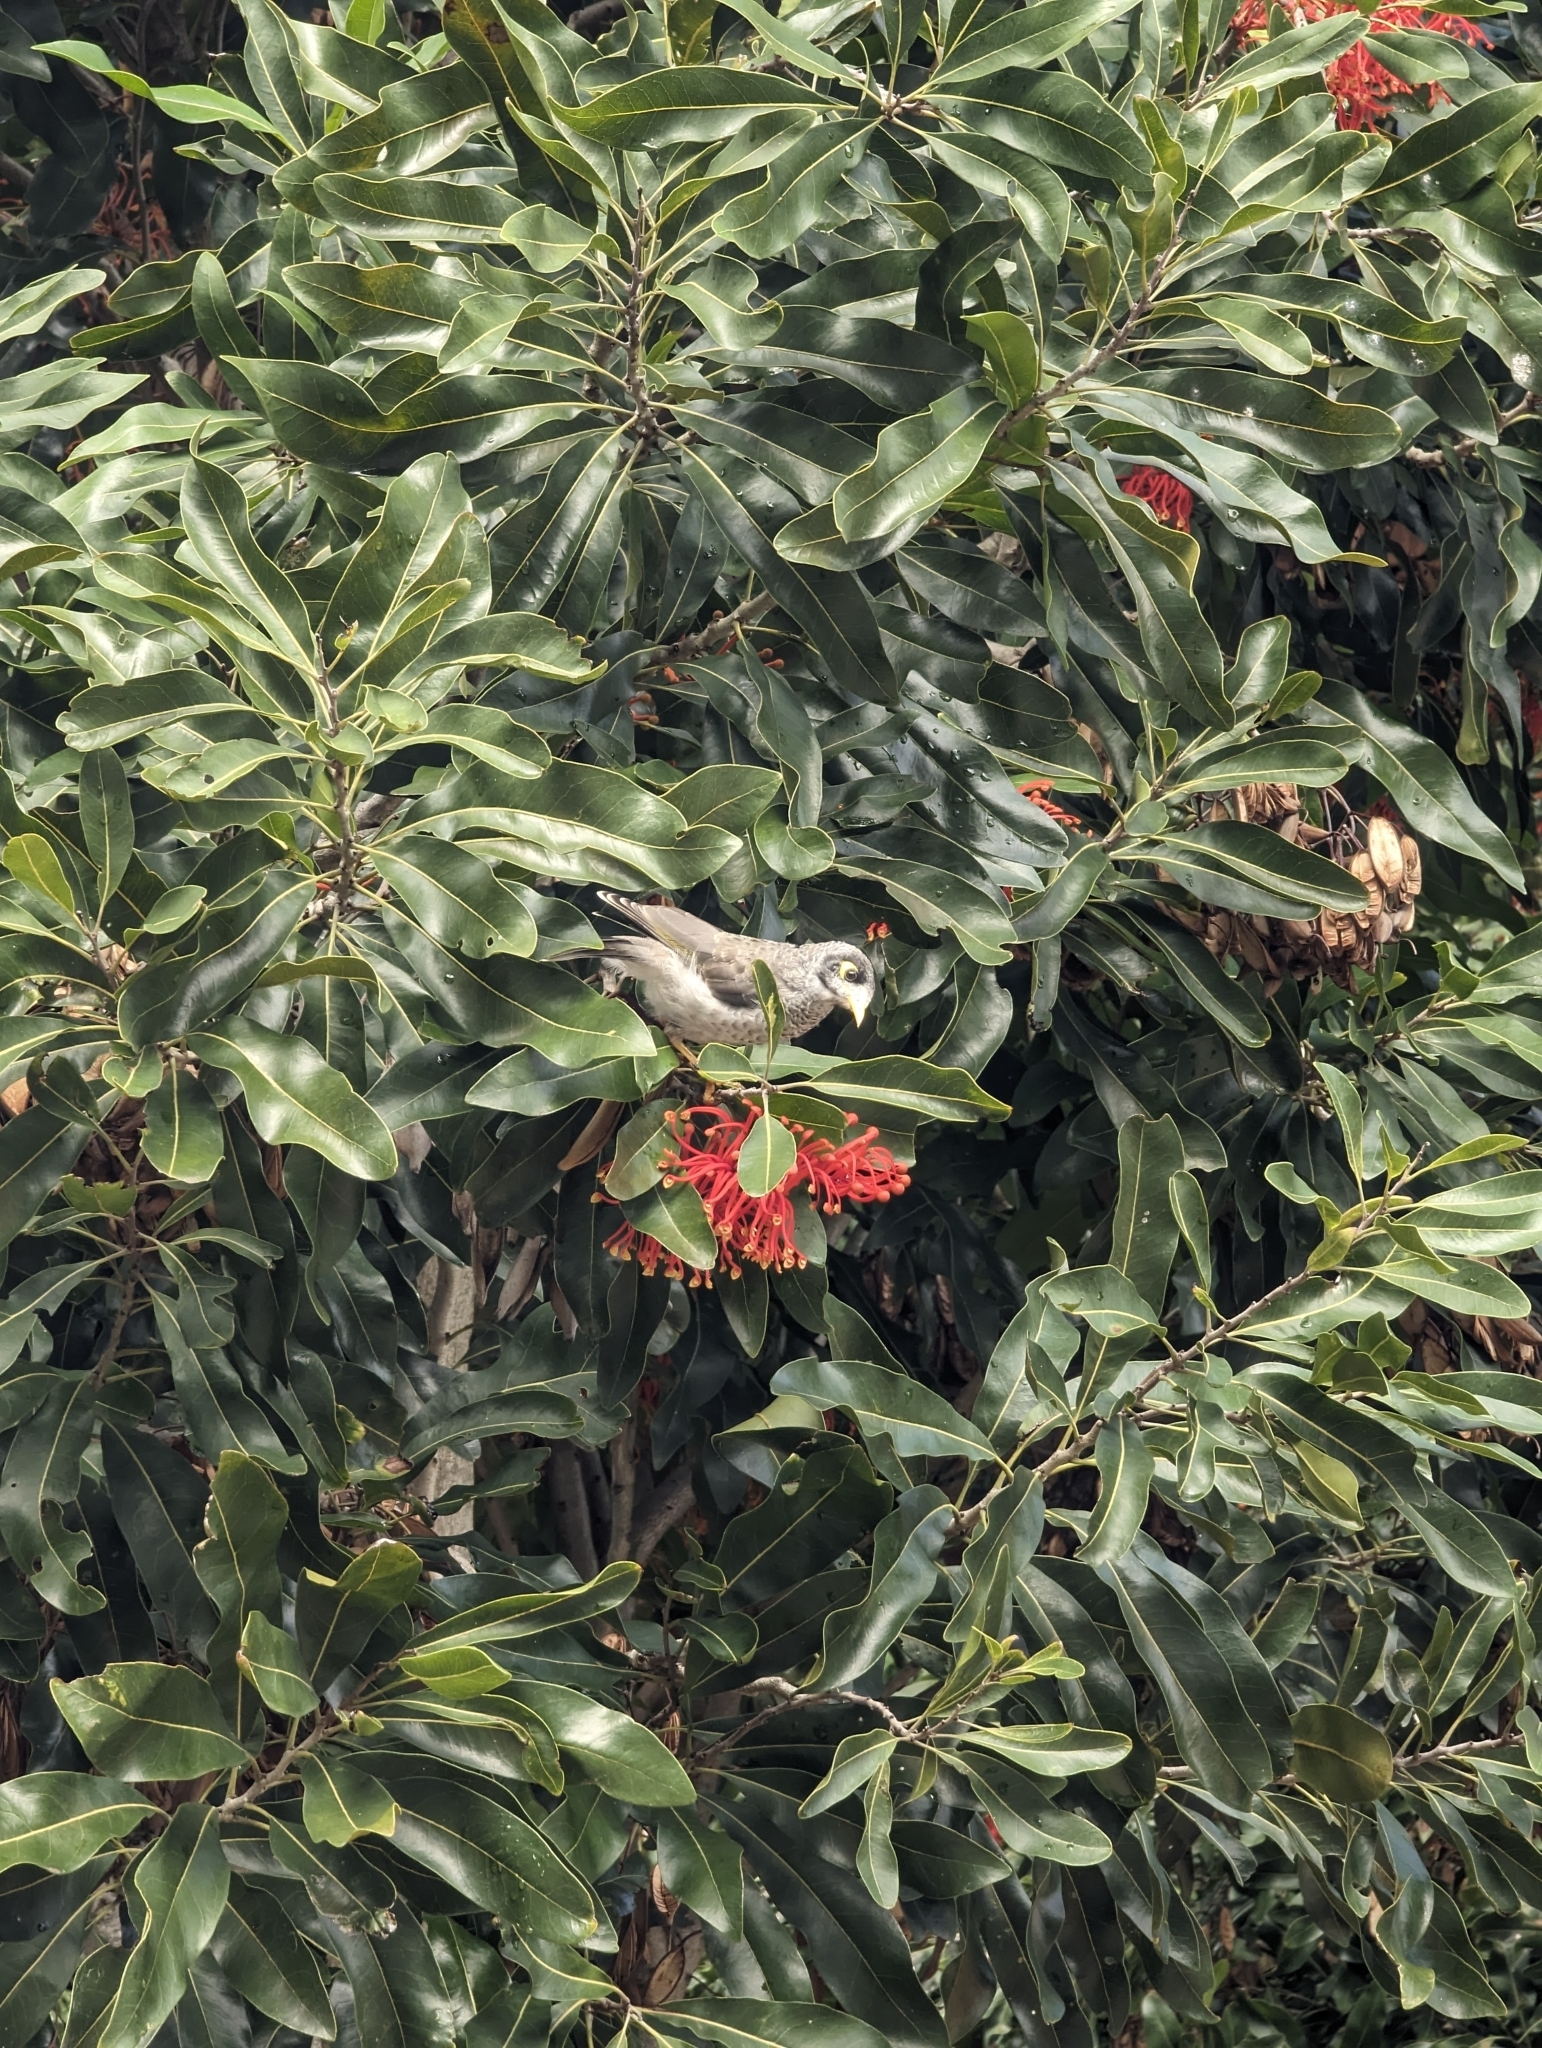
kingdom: Animalia
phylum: Chordata
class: Aves
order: Passeriformes
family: Meliphagidae
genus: Manorina
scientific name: Manorina melanocephala
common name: Noisy miner
